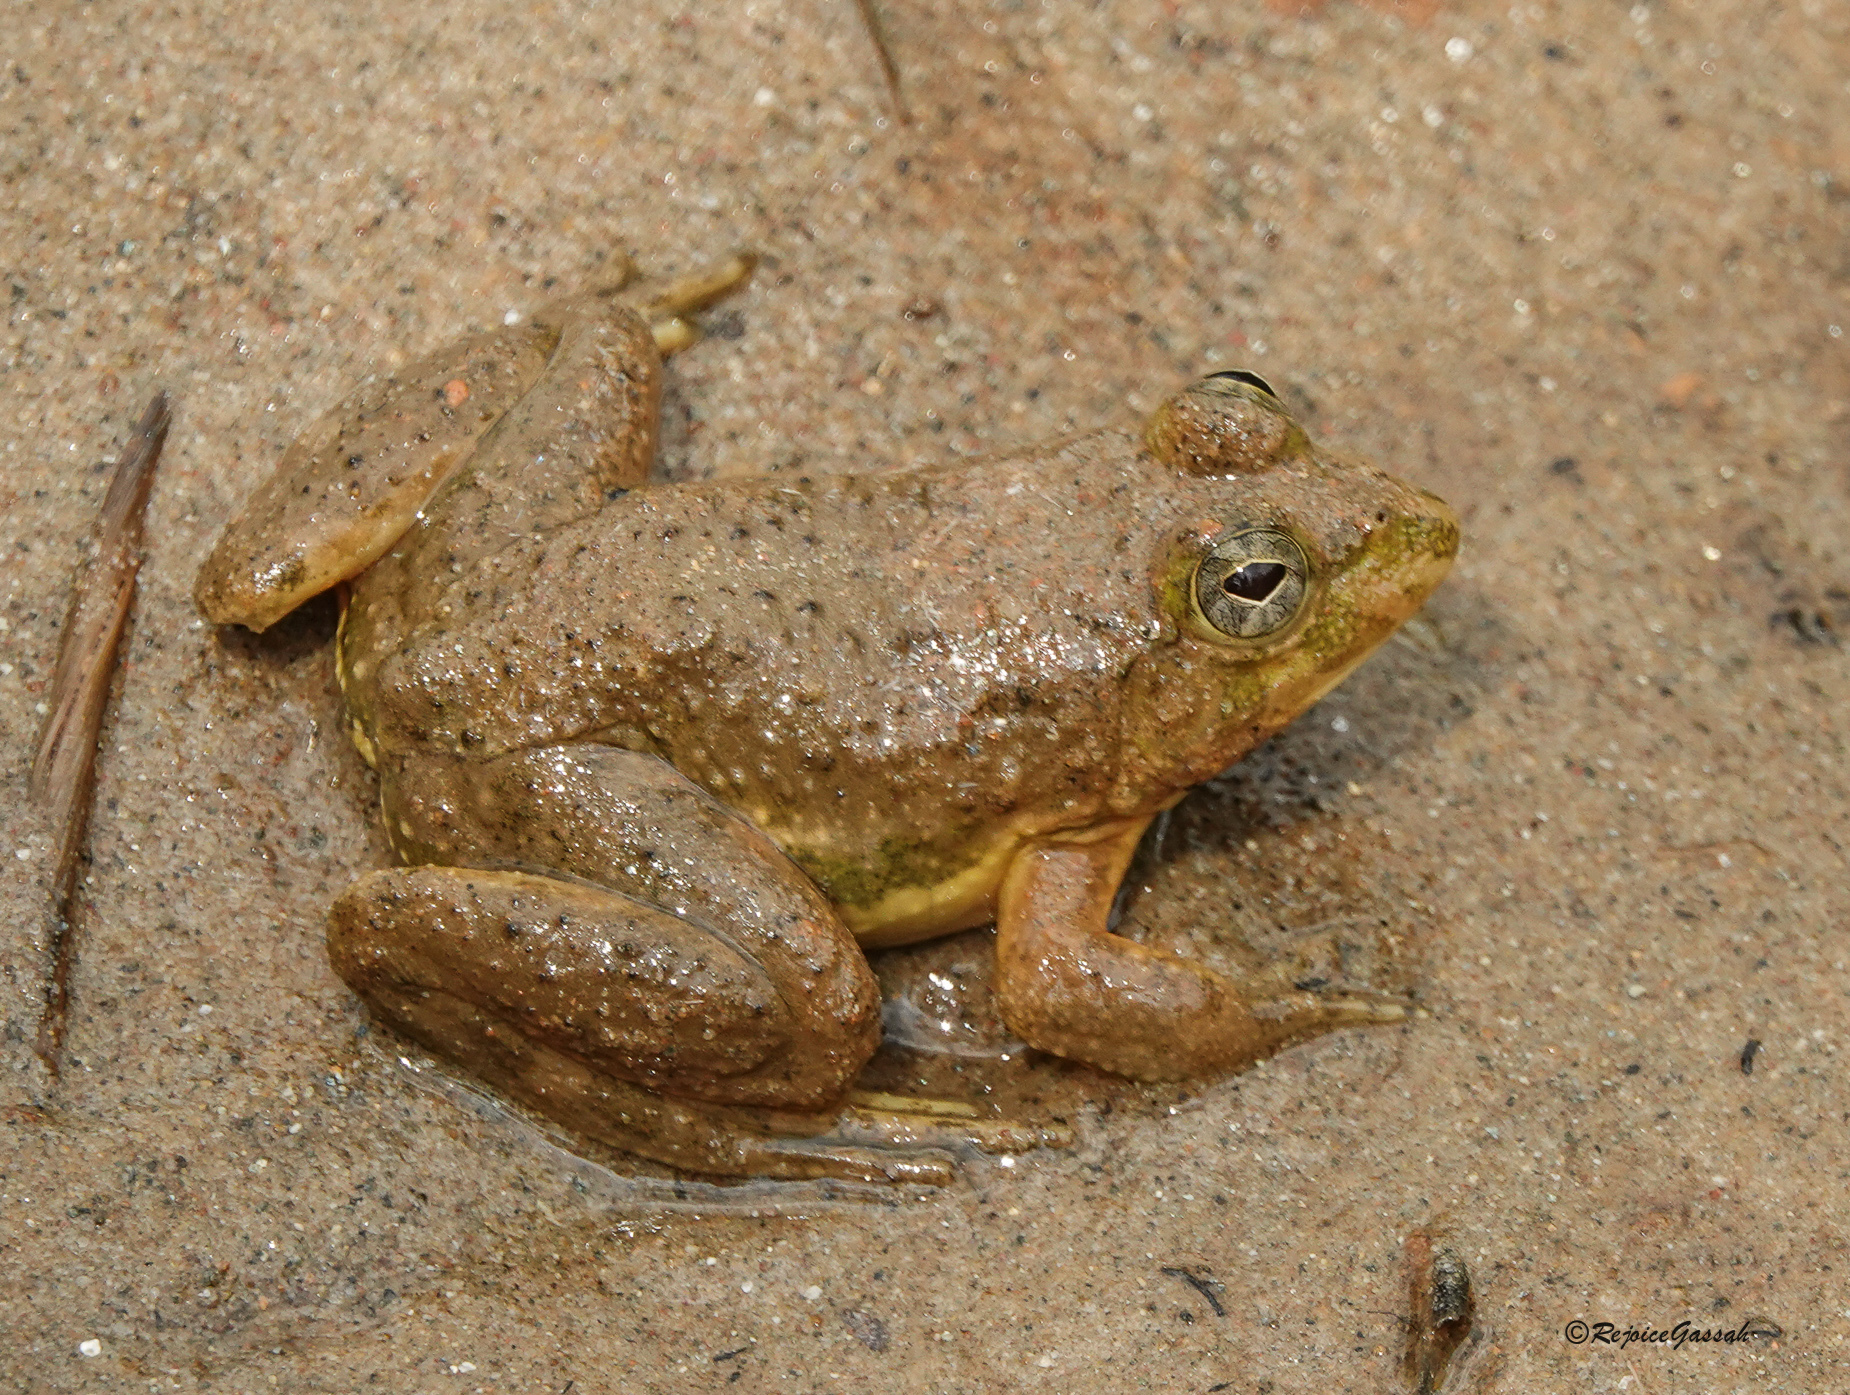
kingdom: Animalia
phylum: Chordata
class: Amphibia
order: Anura
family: Dicroglossidae
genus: Euphlyctis
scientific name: Euphlyctis cyanophlyctis
